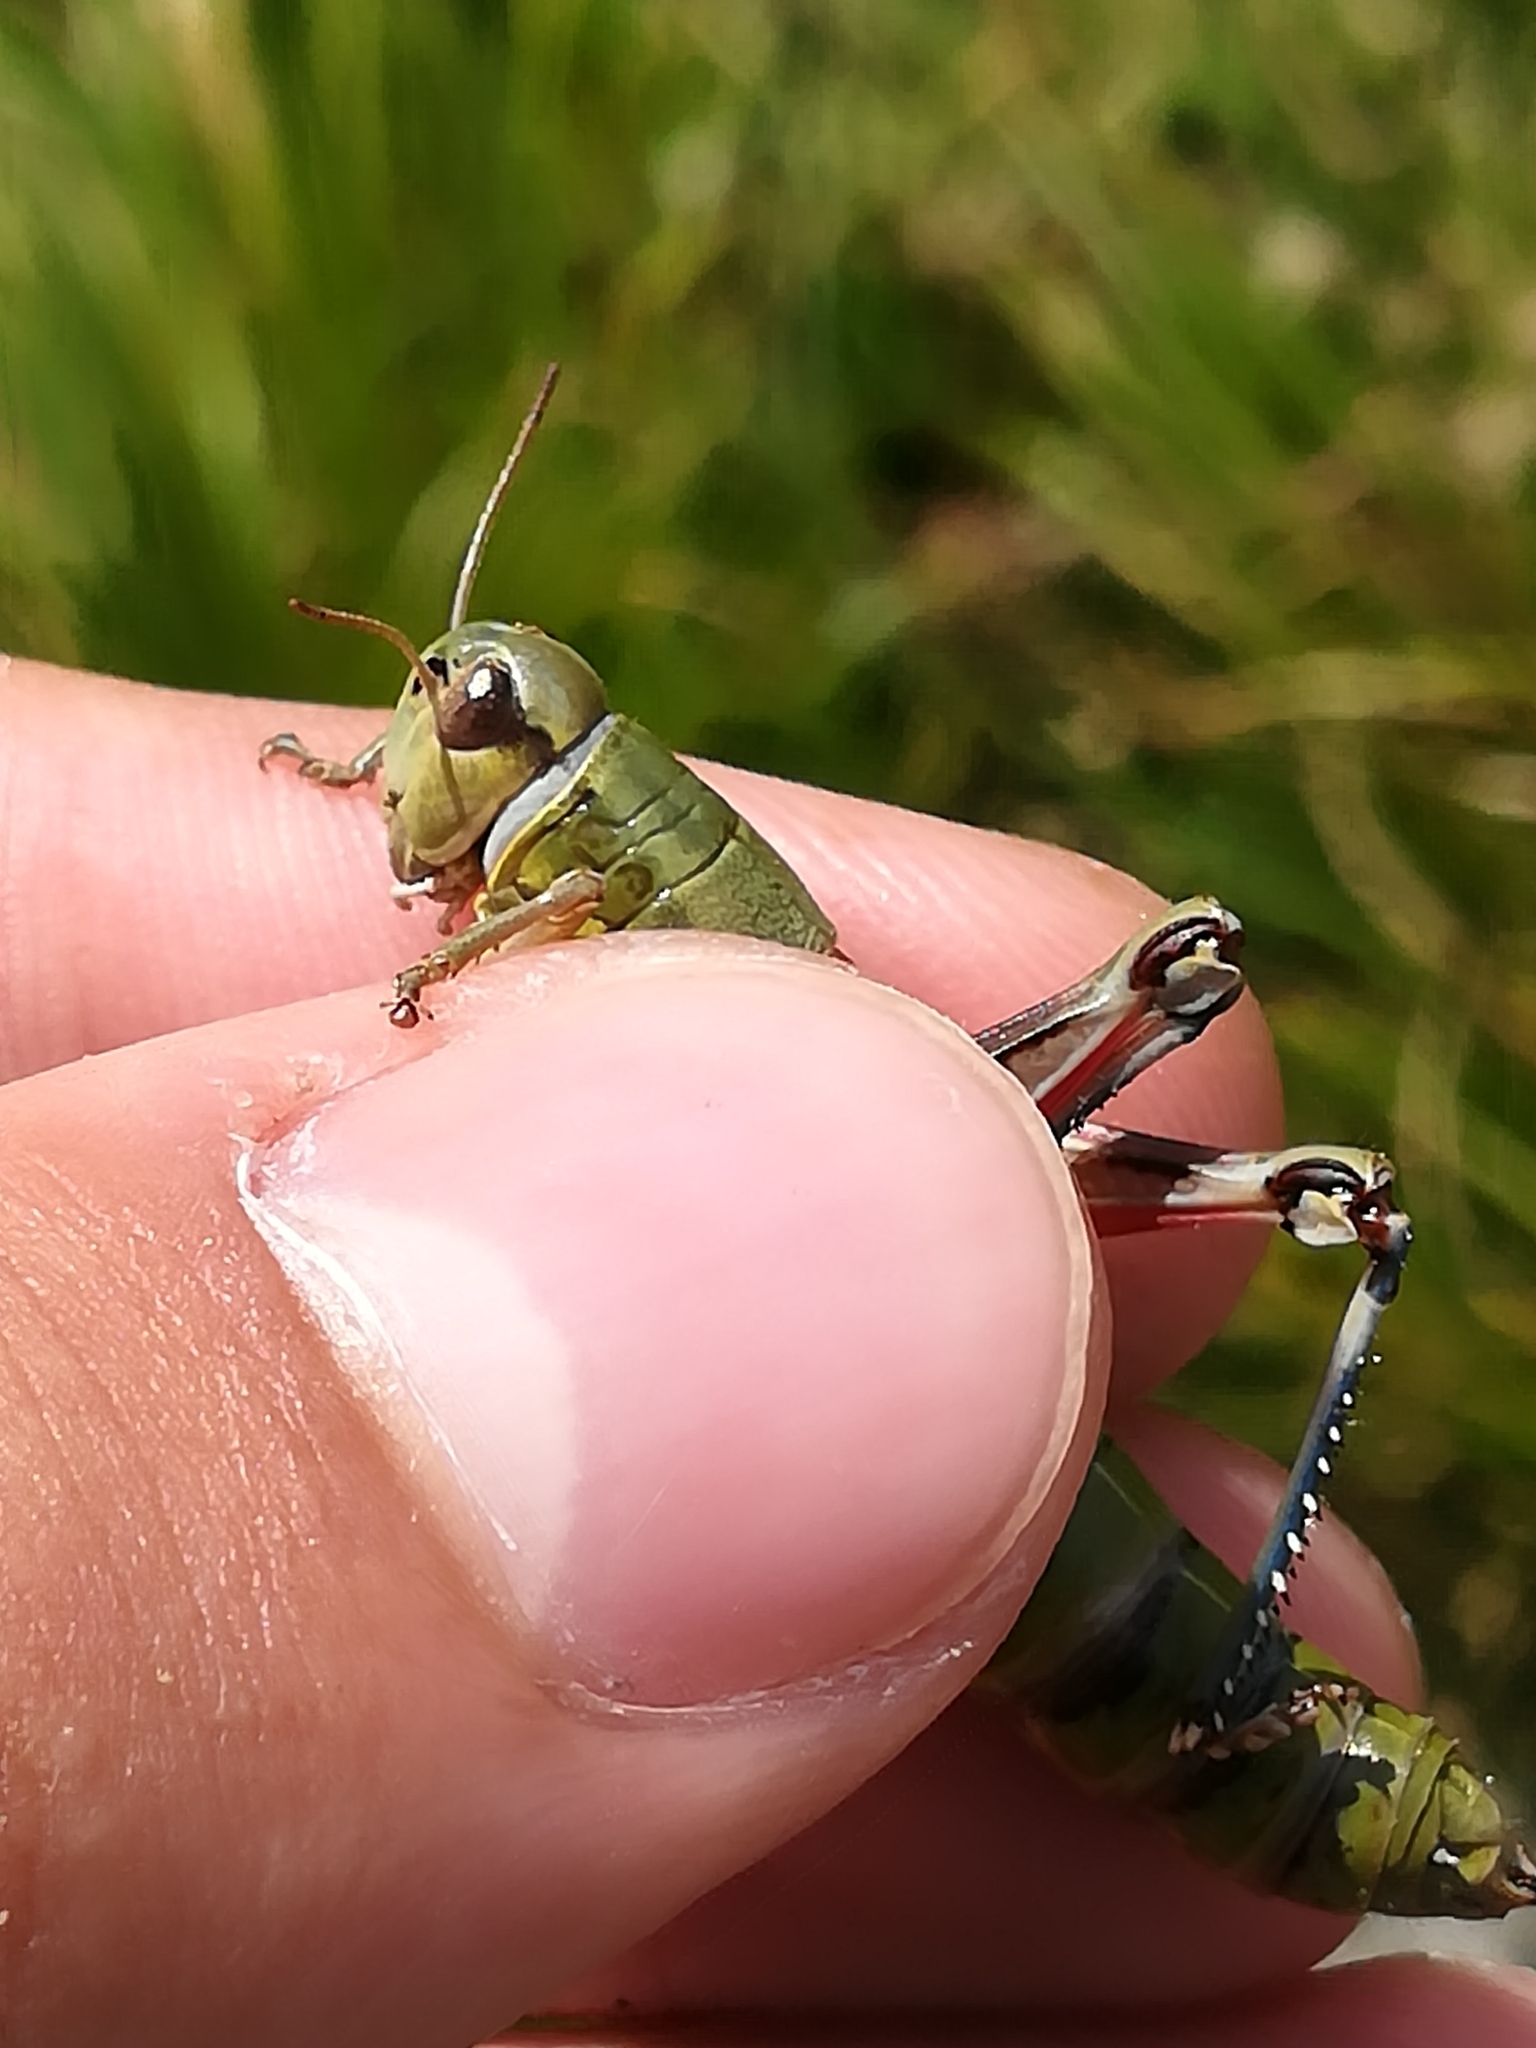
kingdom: Animalia
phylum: Arthropoda
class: Insecta
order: Orthoptera
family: Acrididae
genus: Podisma
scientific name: Podisma emiliae
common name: Emilia mountain grasshopper
